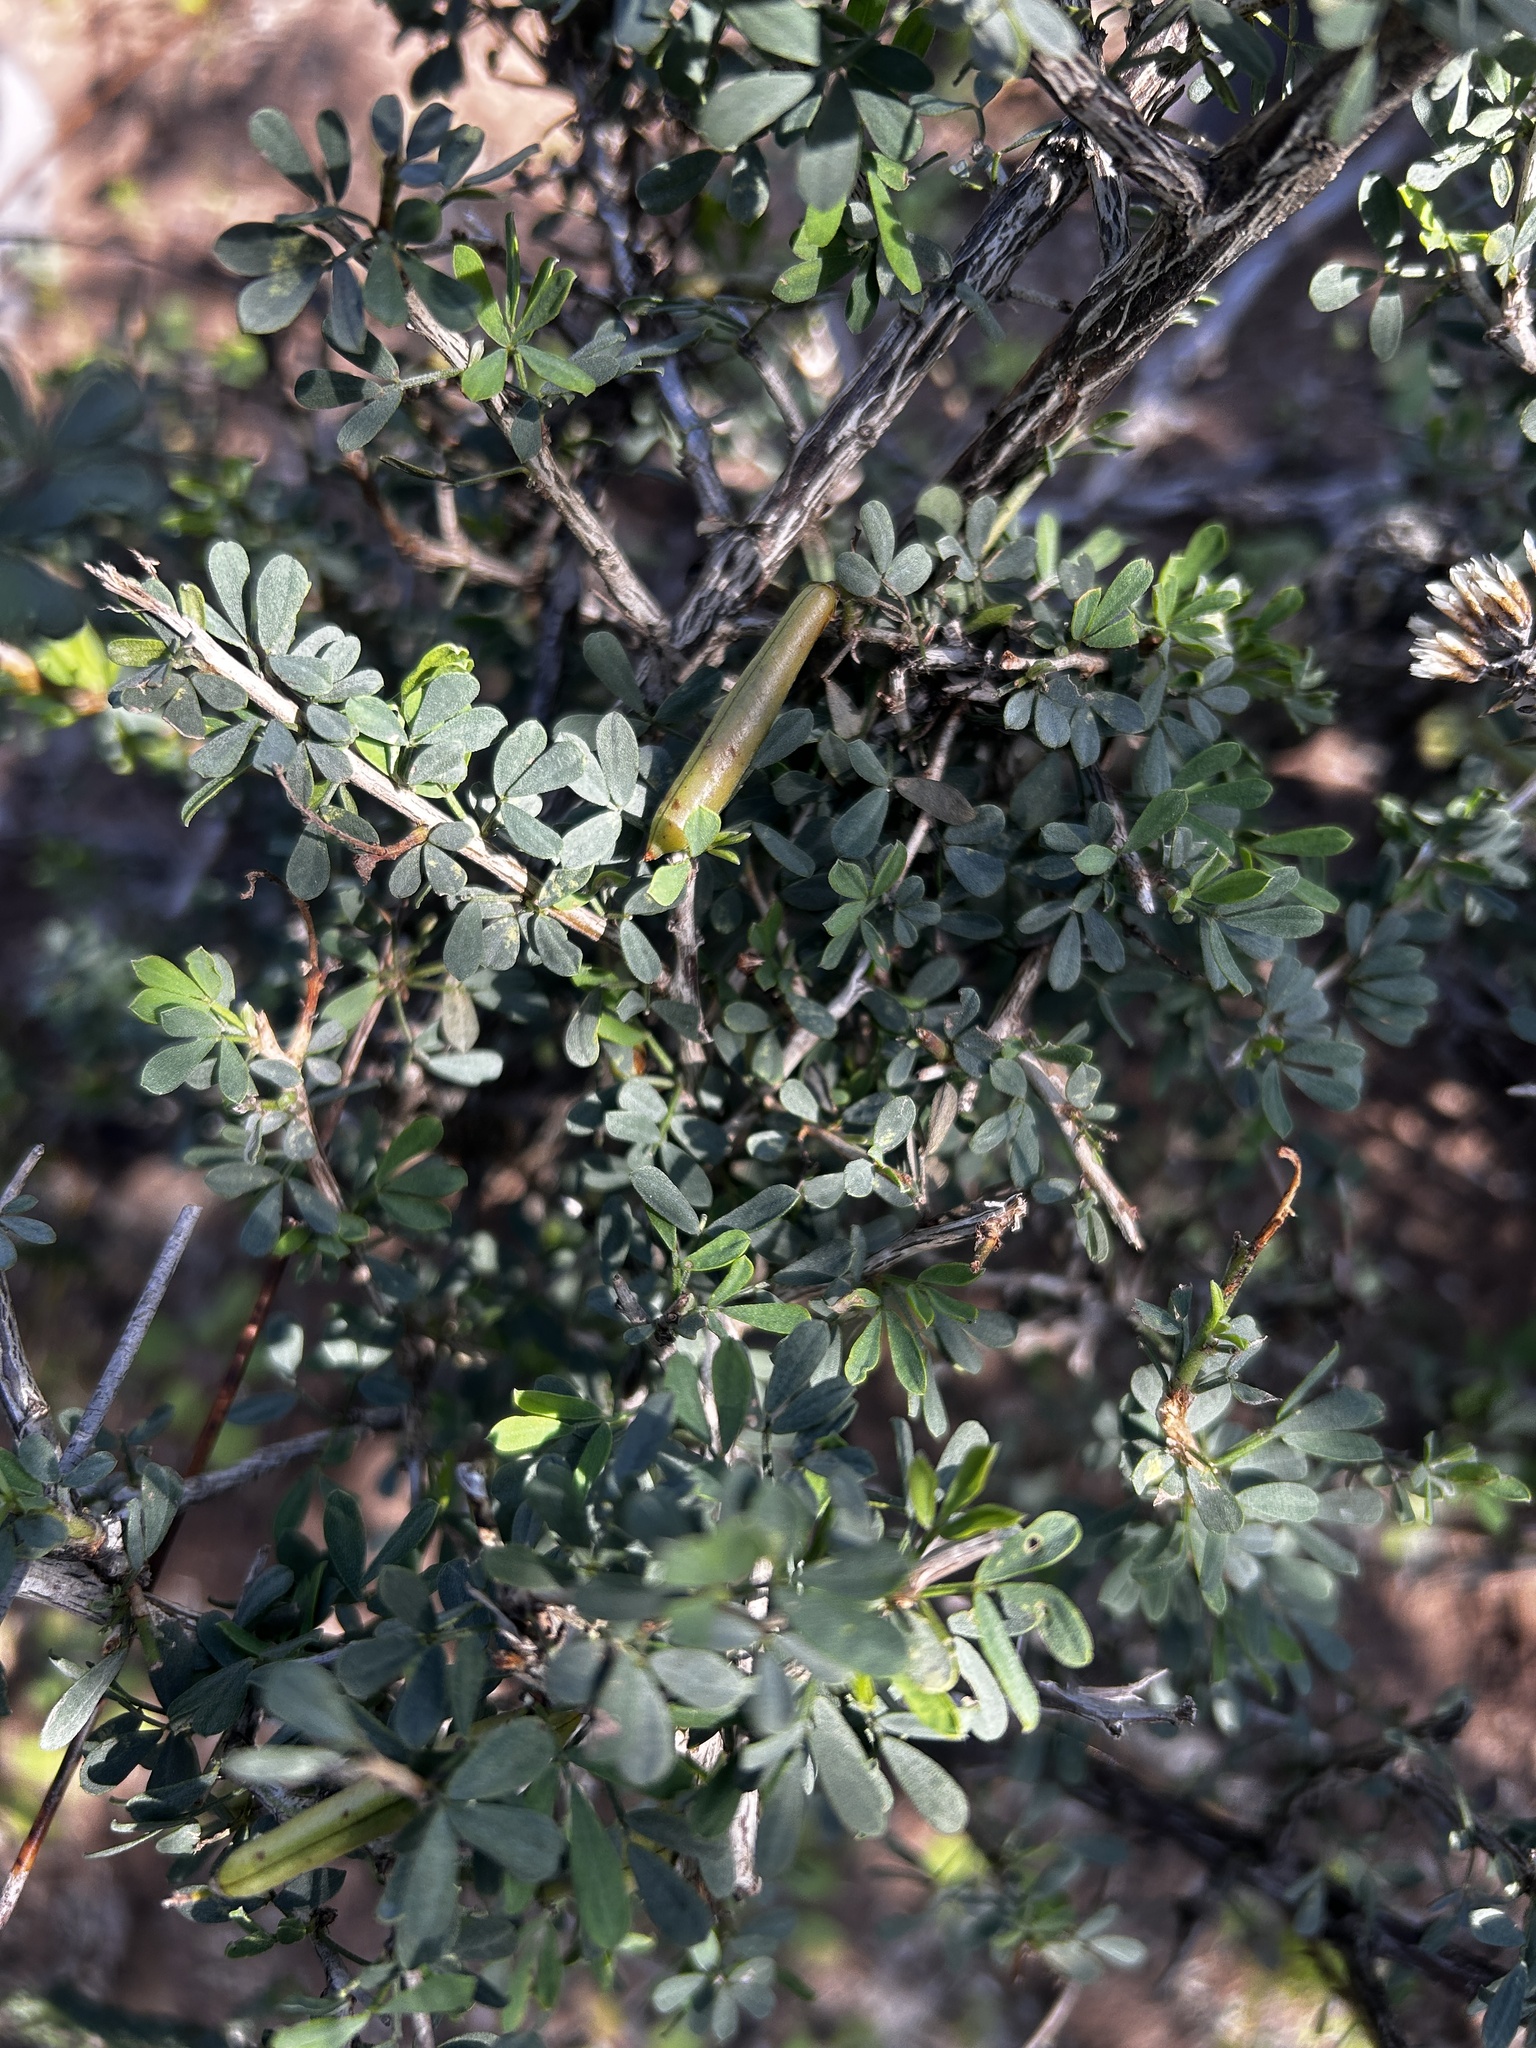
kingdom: Plantae
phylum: Tracheophyta
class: Magnoliopsida
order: Fabales
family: Fabaceae
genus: Indigofera
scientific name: Indigofera nigromontana
